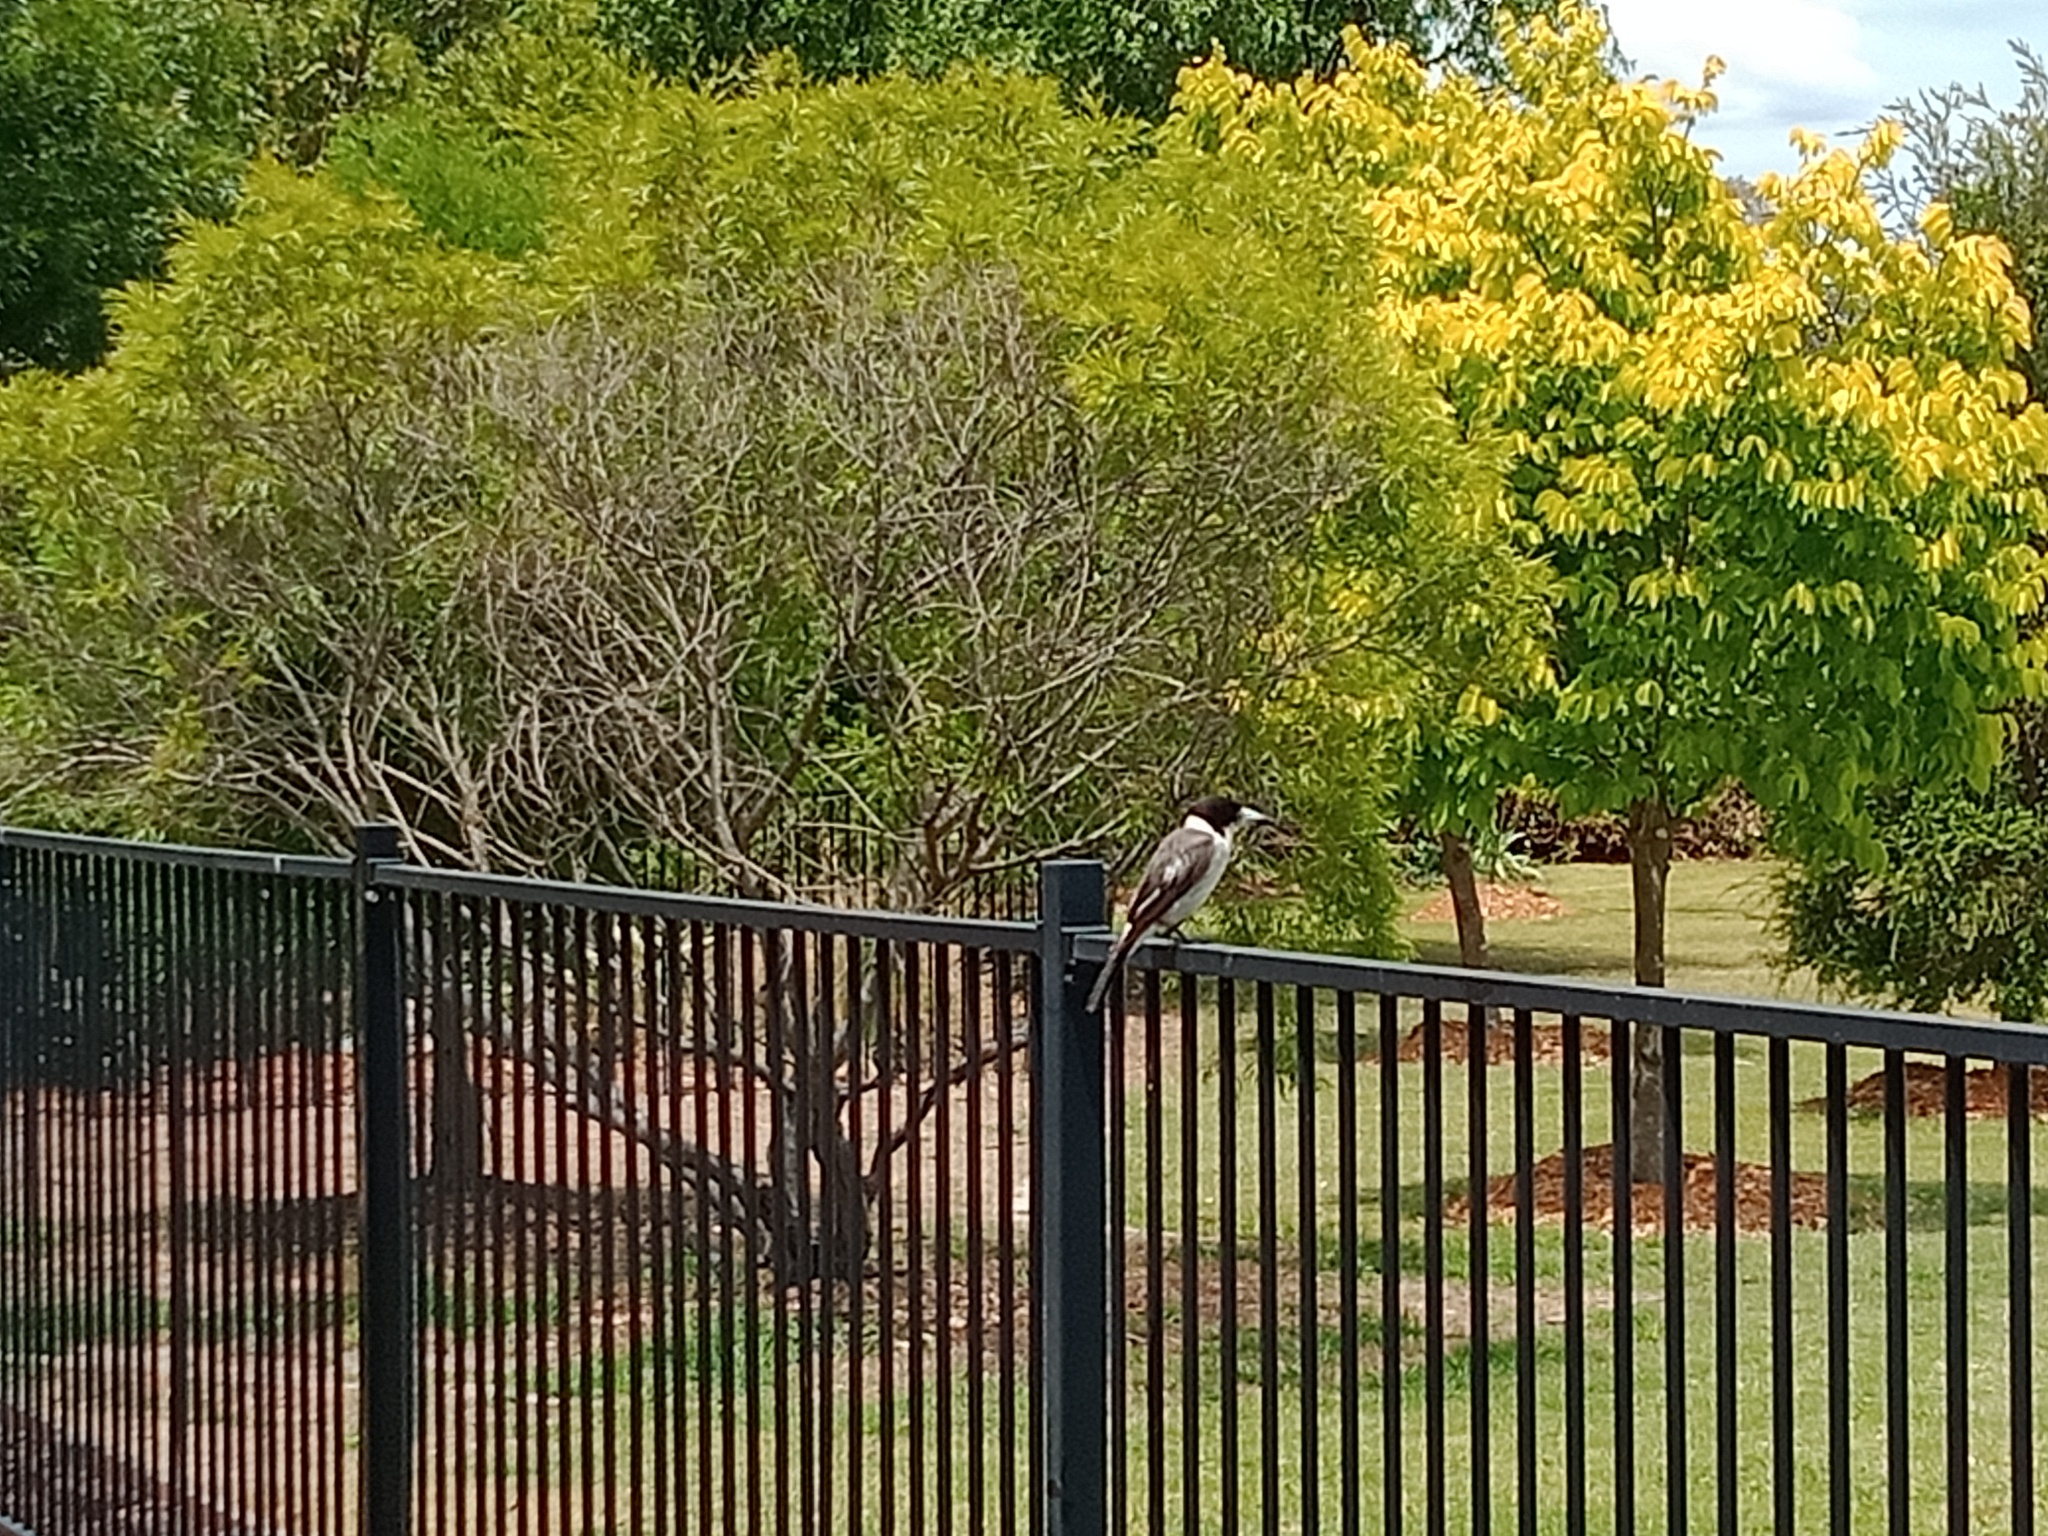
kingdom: Animalia
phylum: Chordata
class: Aves
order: Passeriformes
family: Cracticidae
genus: Cracticus
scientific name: Cracticus torquatus
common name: Grey butcherbird
